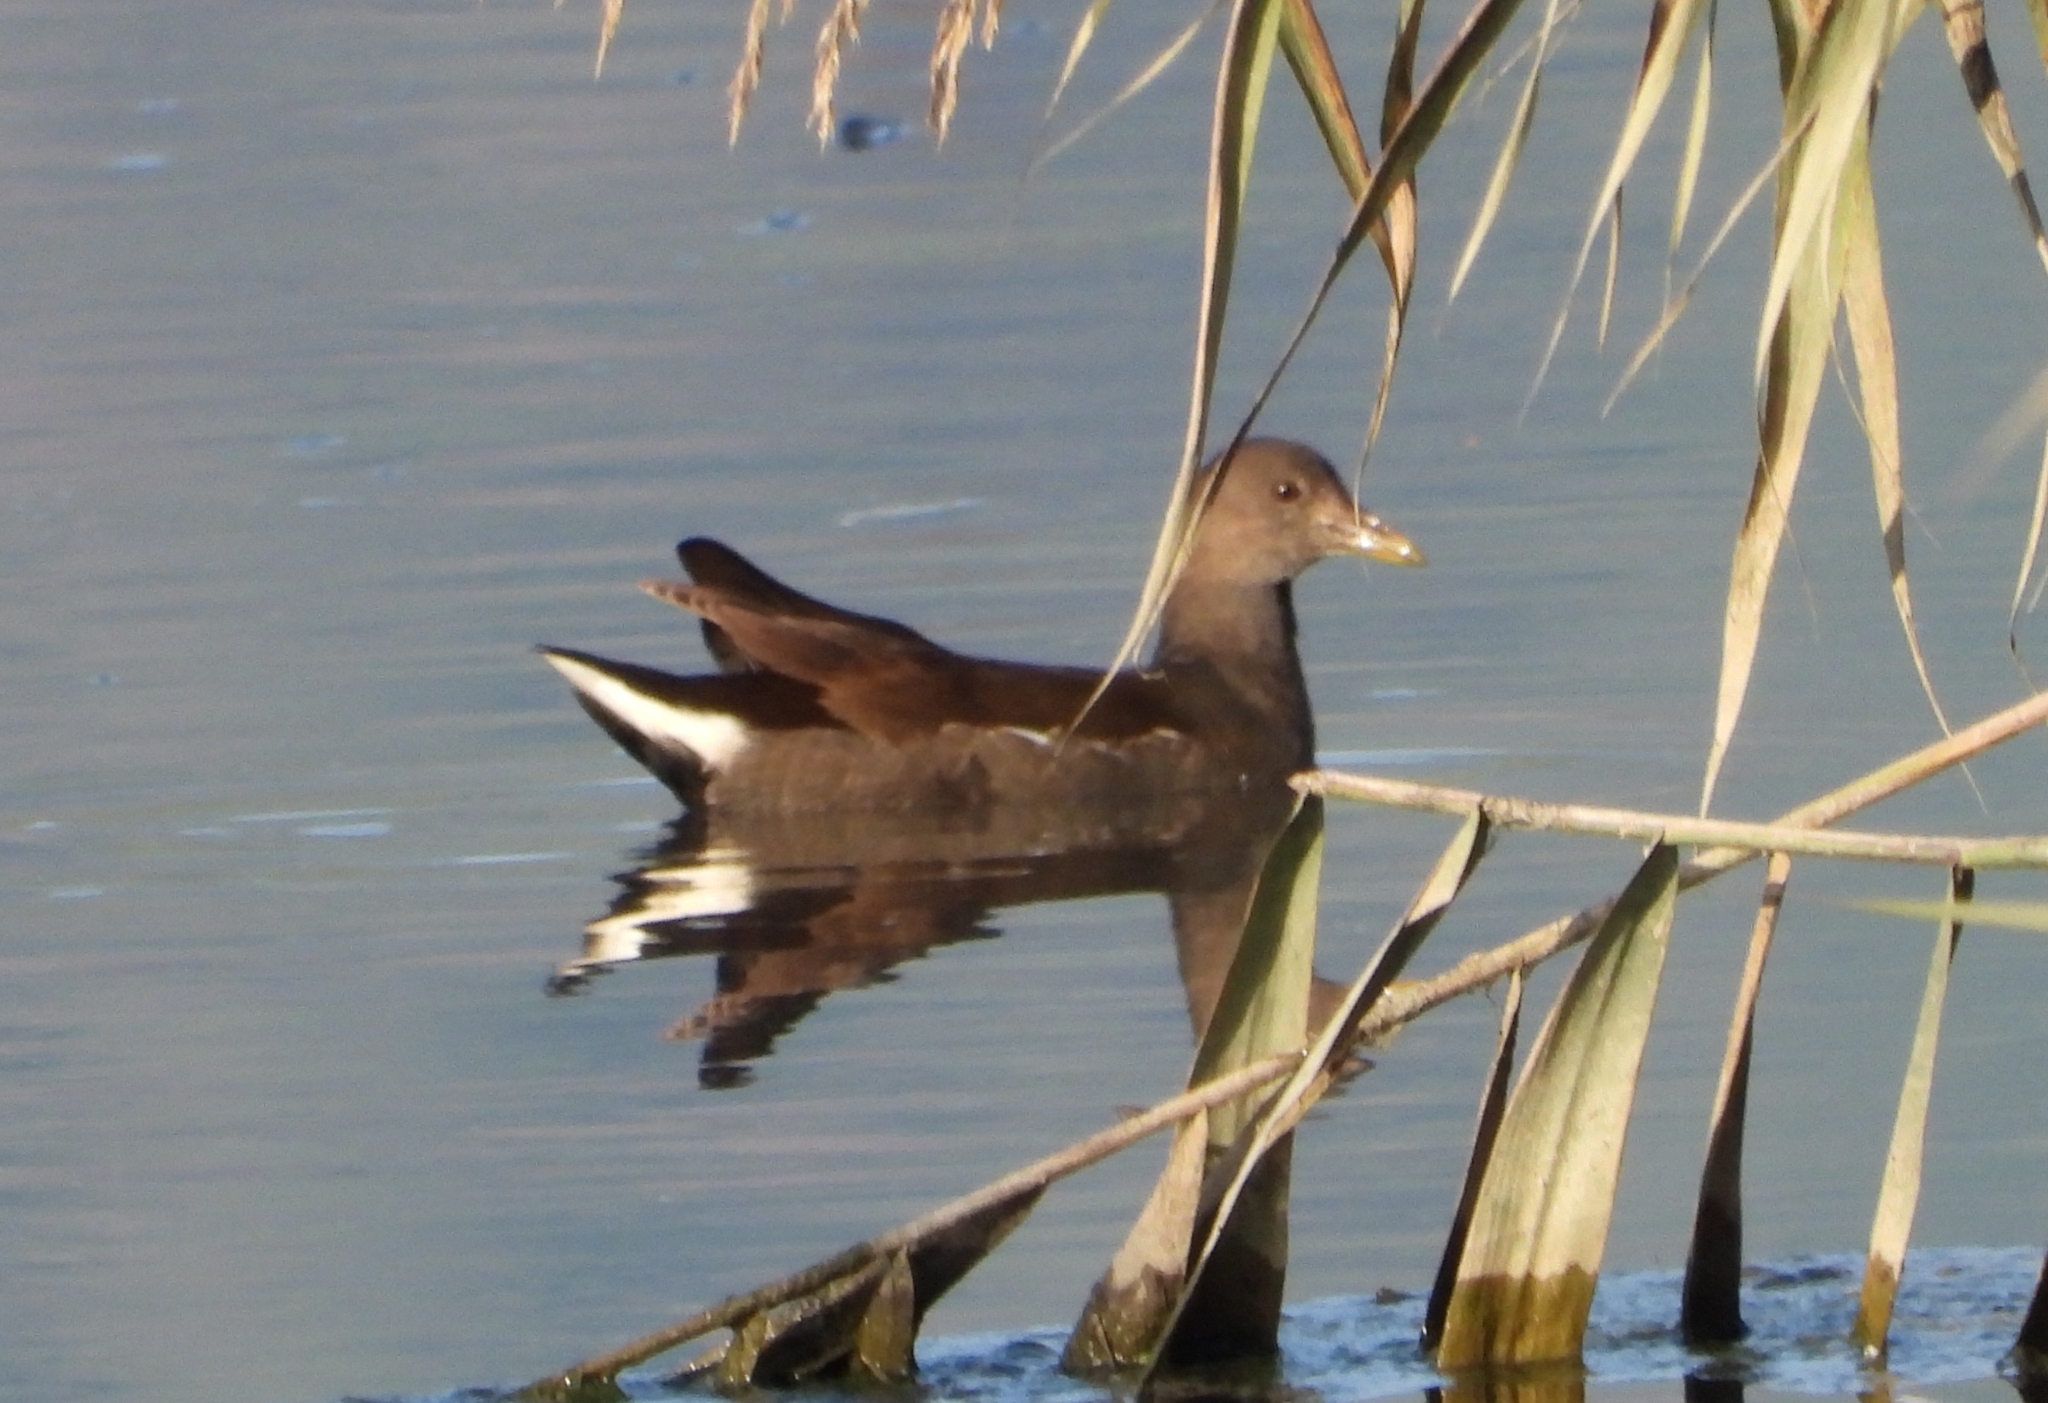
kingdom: Animalia
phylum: Chordata
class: Aves
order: Gruiformes
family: Rallidae
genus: Gallinula
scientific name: Gallinula chloropus
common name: Common moorhen
